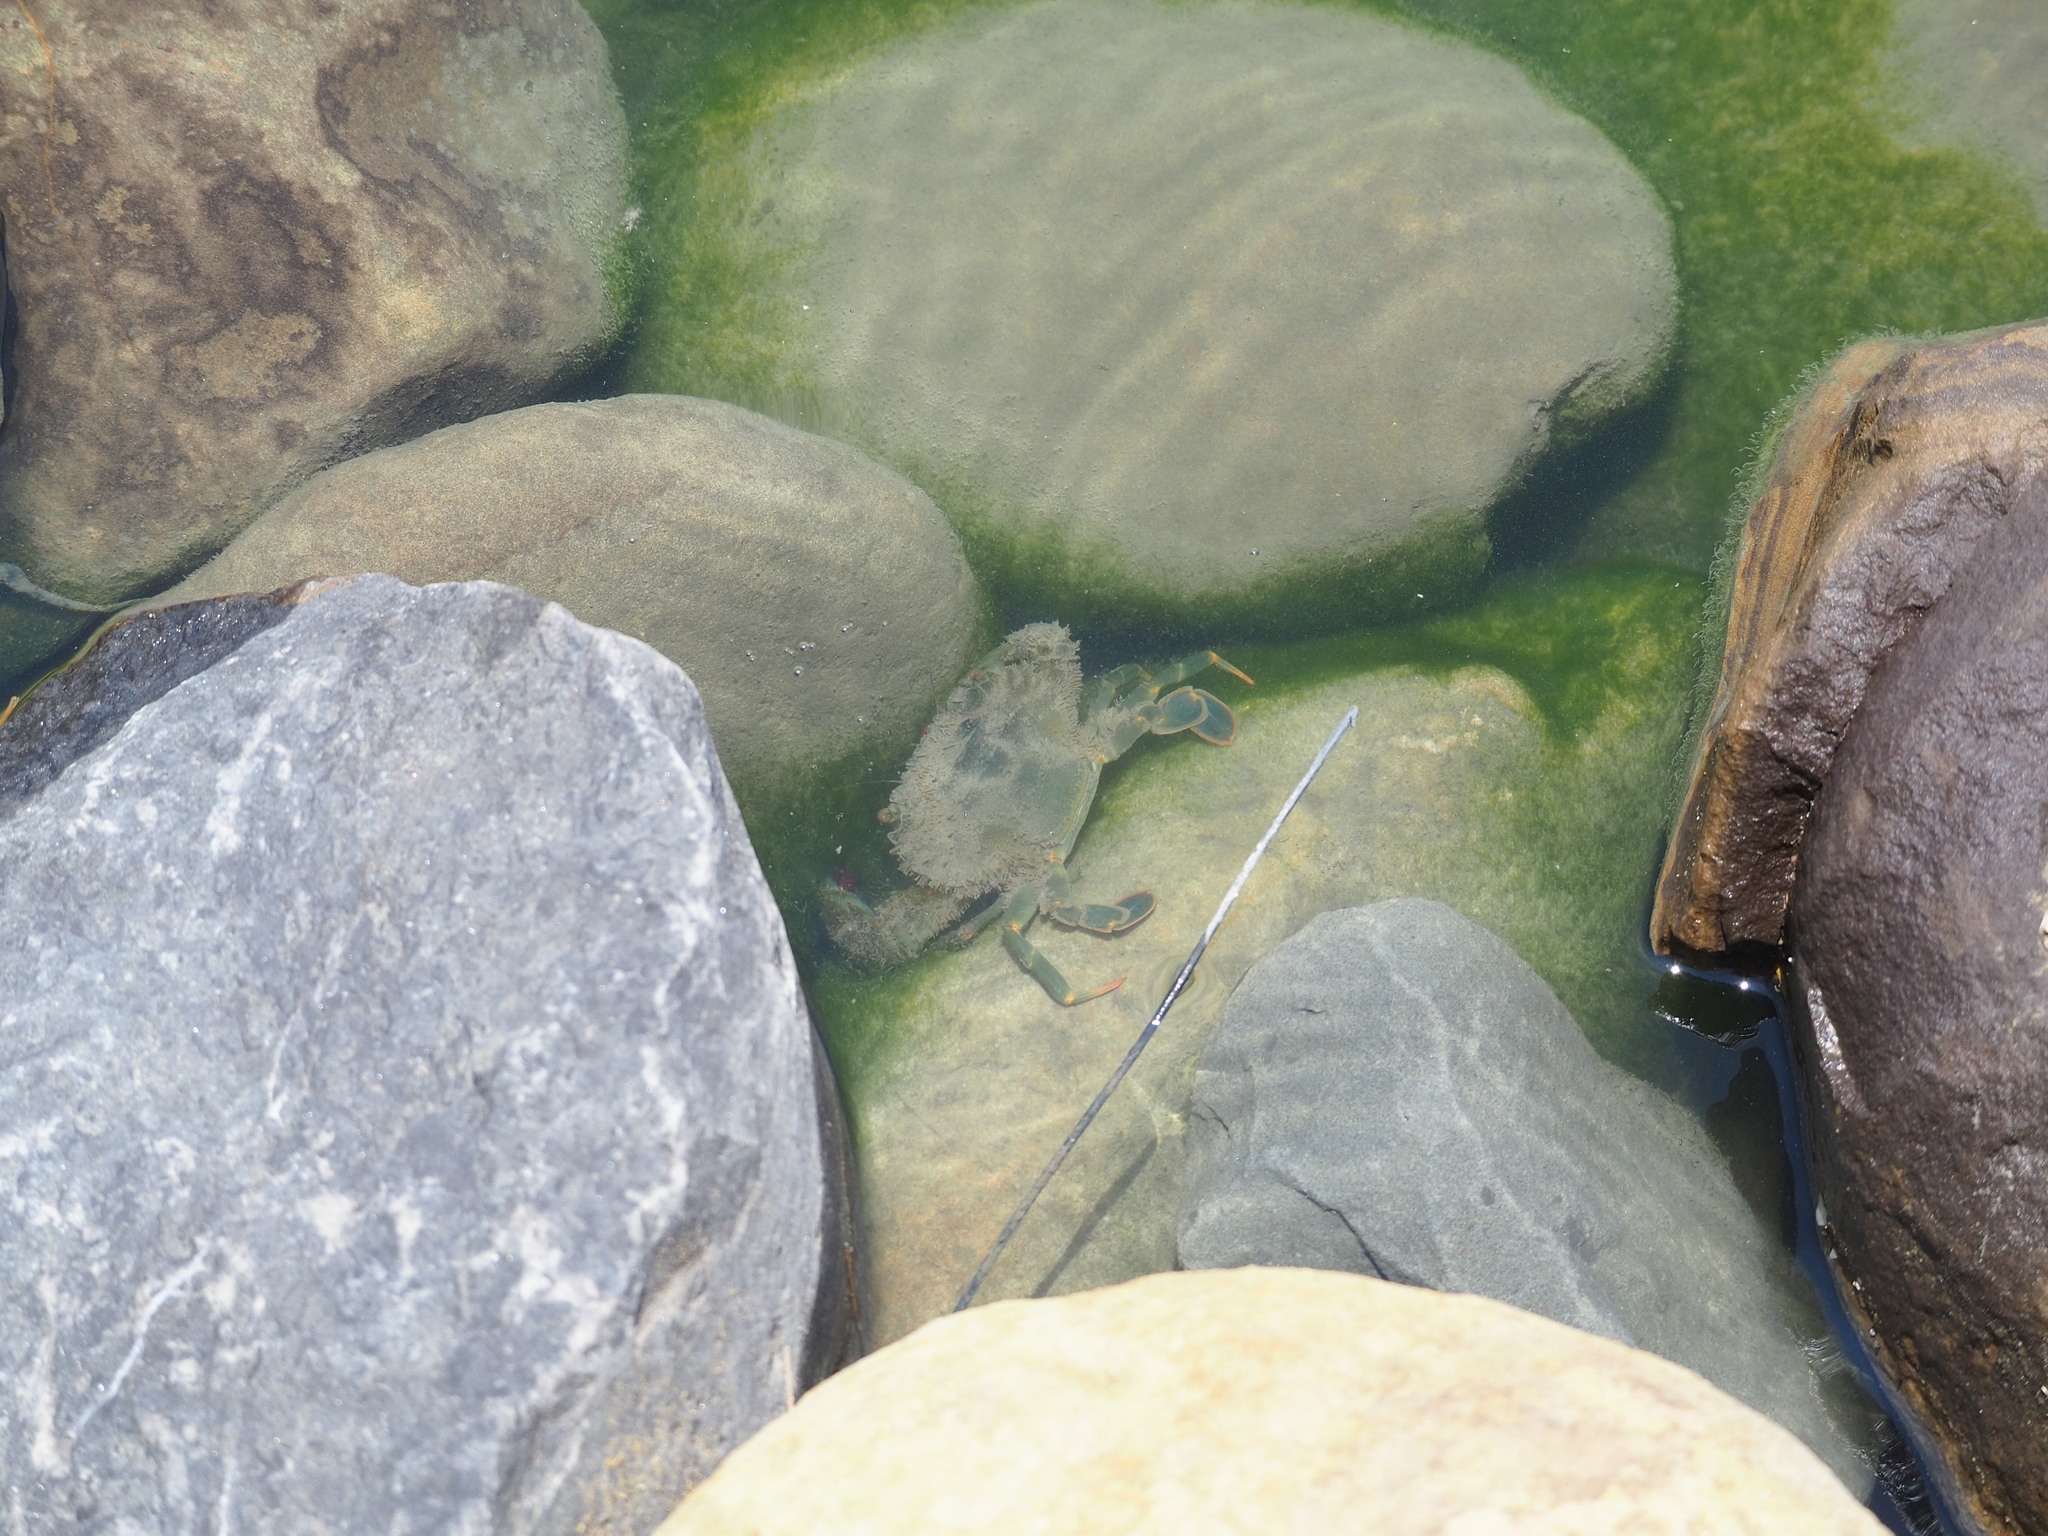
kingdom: Animalia
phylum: Arthropoda
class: Malacostraca
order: Decapoda
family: Portunidae
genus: Thalamita
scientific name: Thalamita crenata
